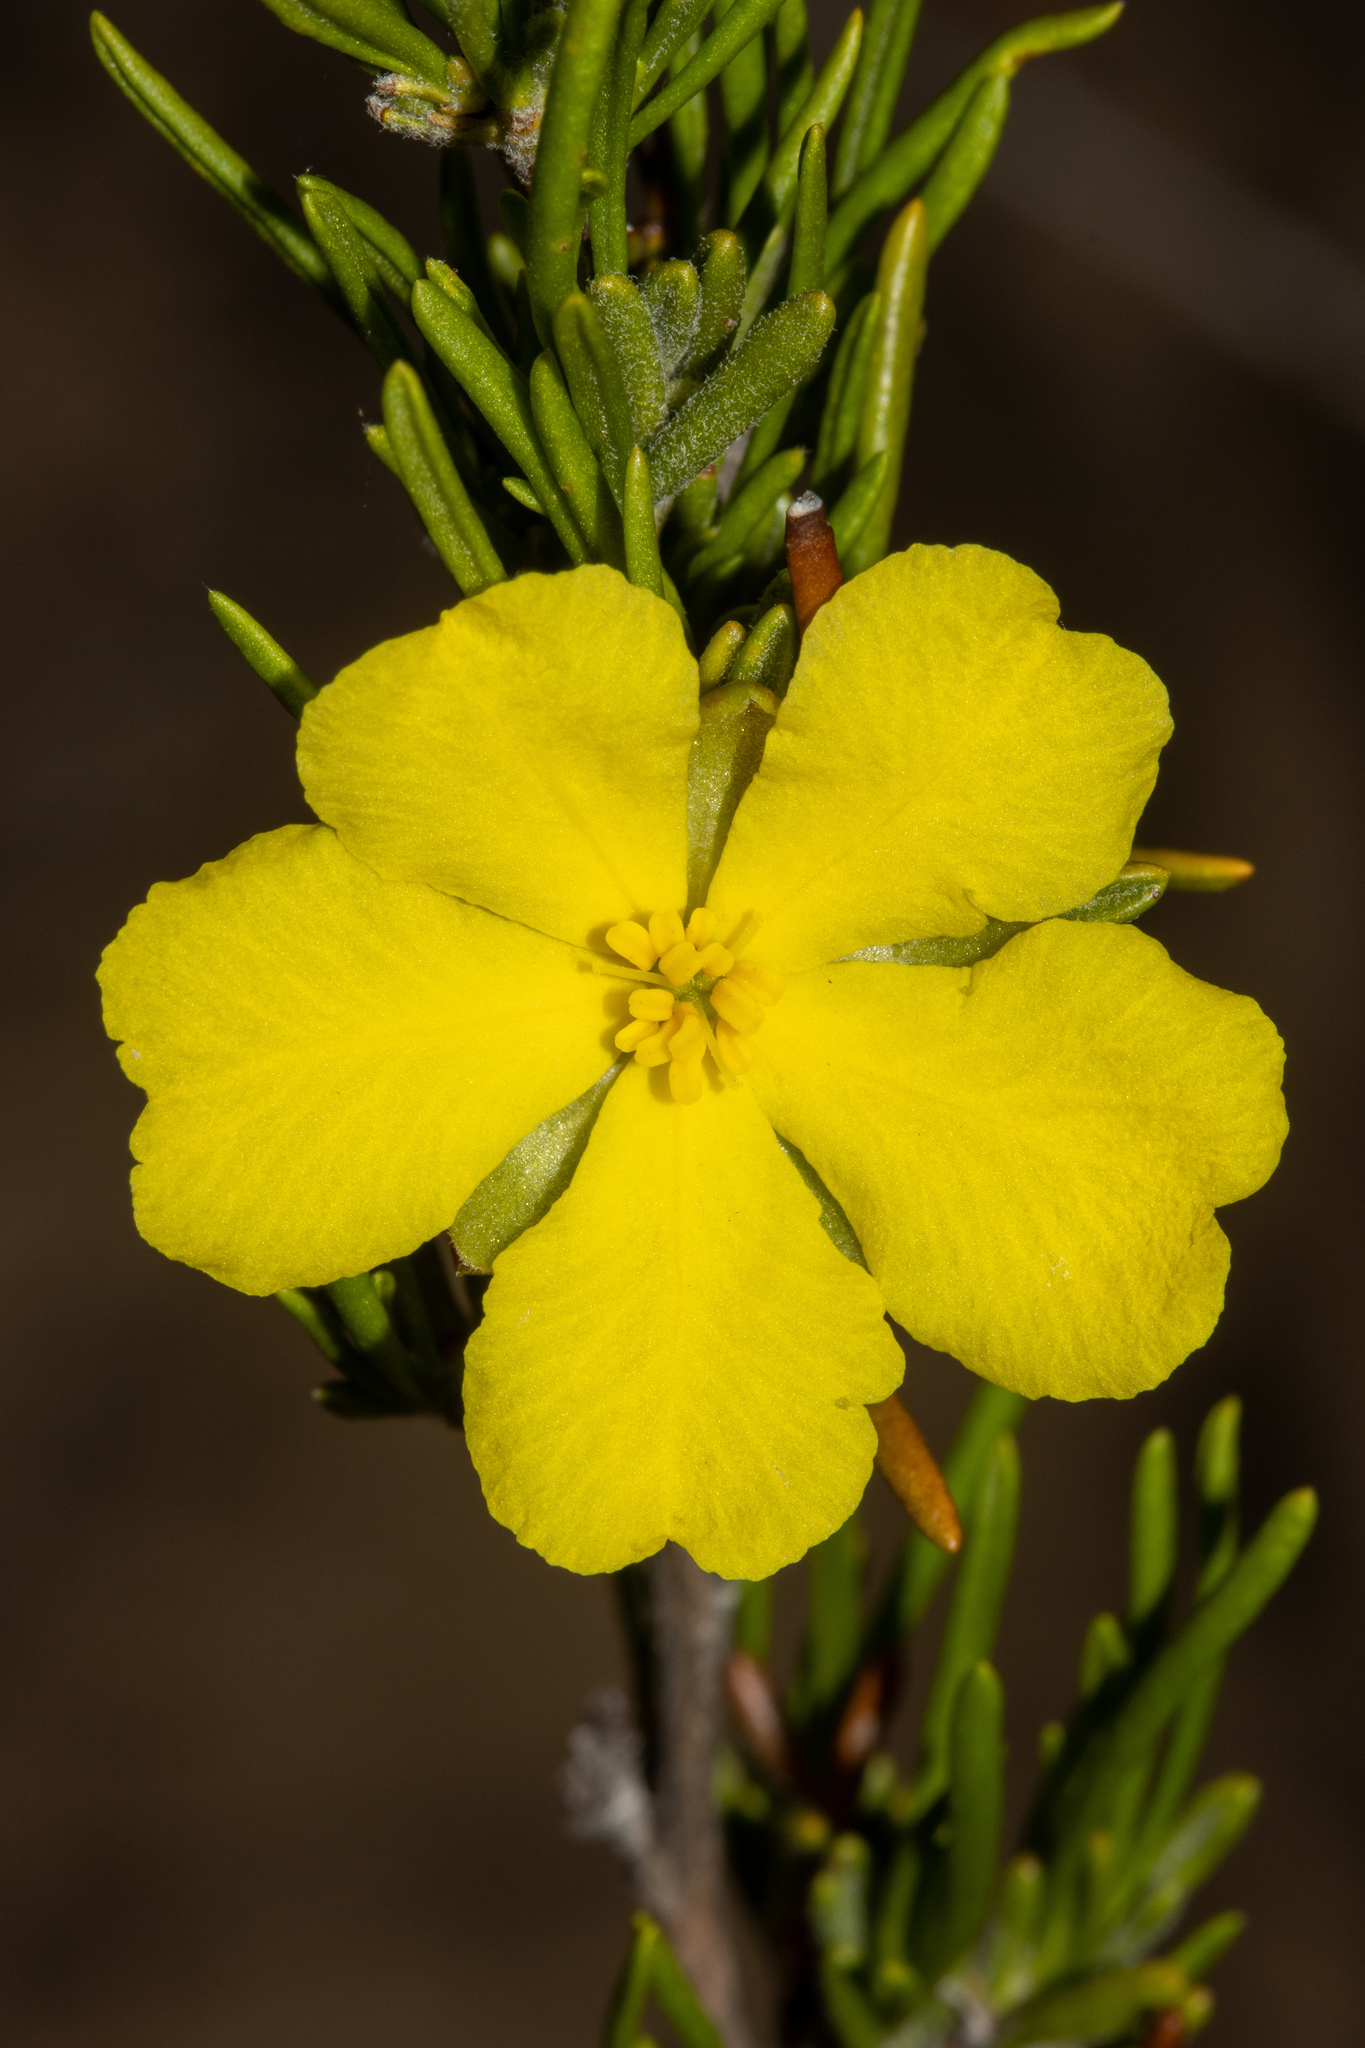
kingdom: Plantae
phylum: Tracheophyta
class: Magnoliopsida
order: Dilleniales
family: Dilleniaceae
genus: Hibbertia
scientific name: Hibbertia crispula
